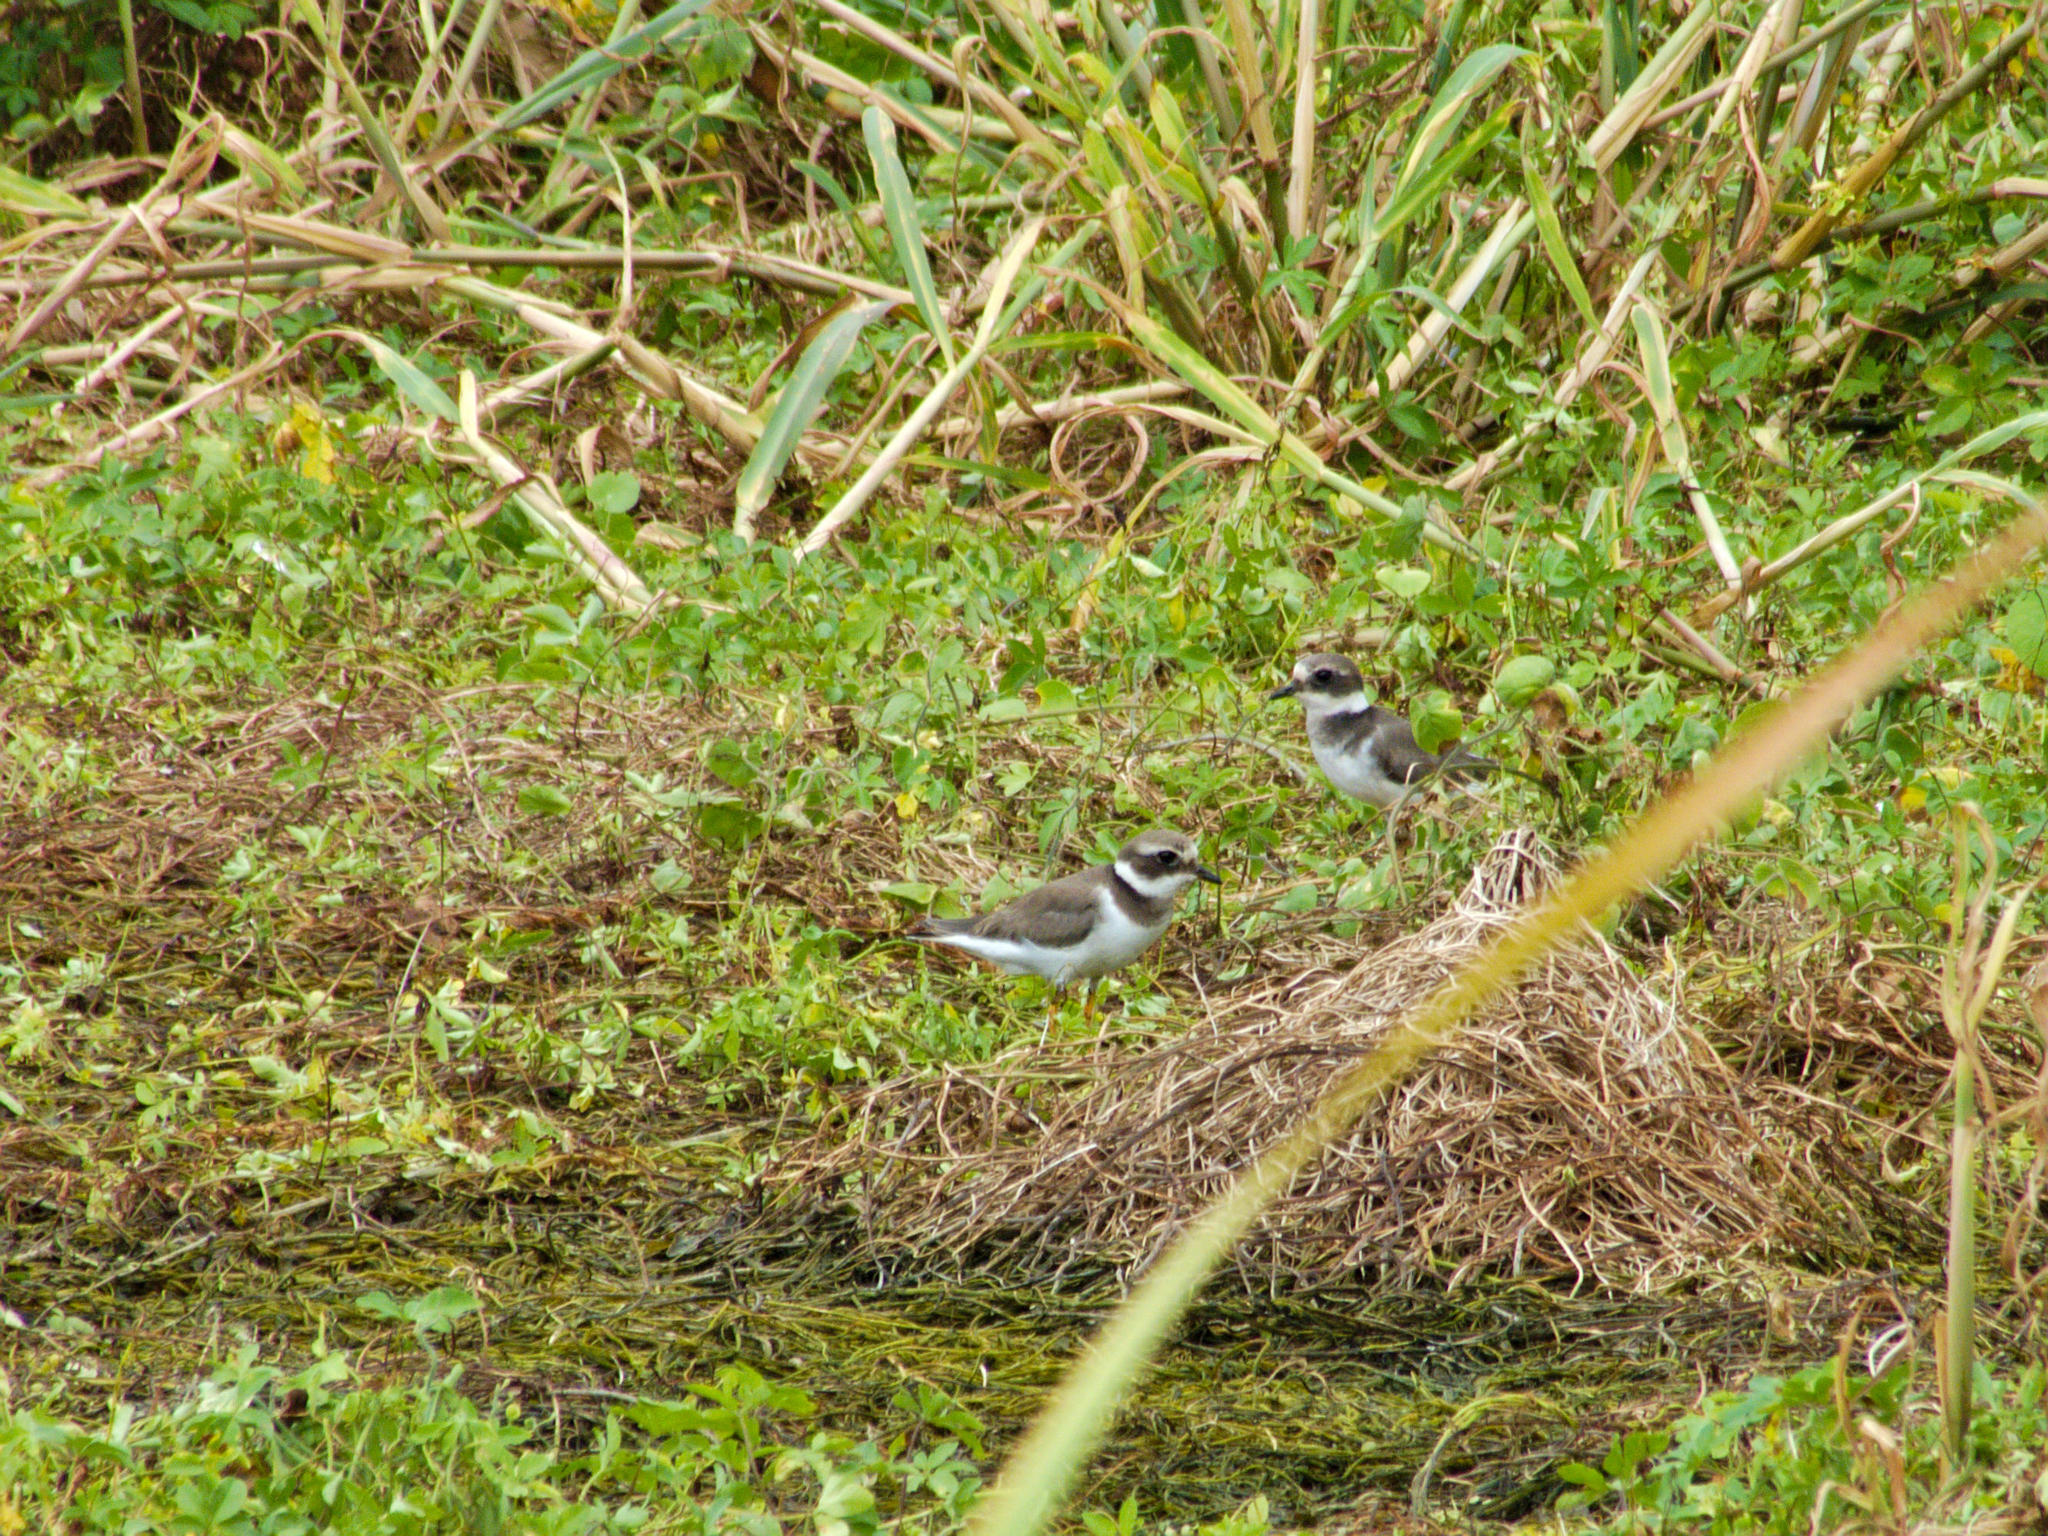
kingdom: Animalia
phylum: Chordata
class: Aves
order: Charadriiformes
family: Charadriidae
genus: Charadrius
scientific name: Charadrius hiaticula
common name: Common ringed plover
